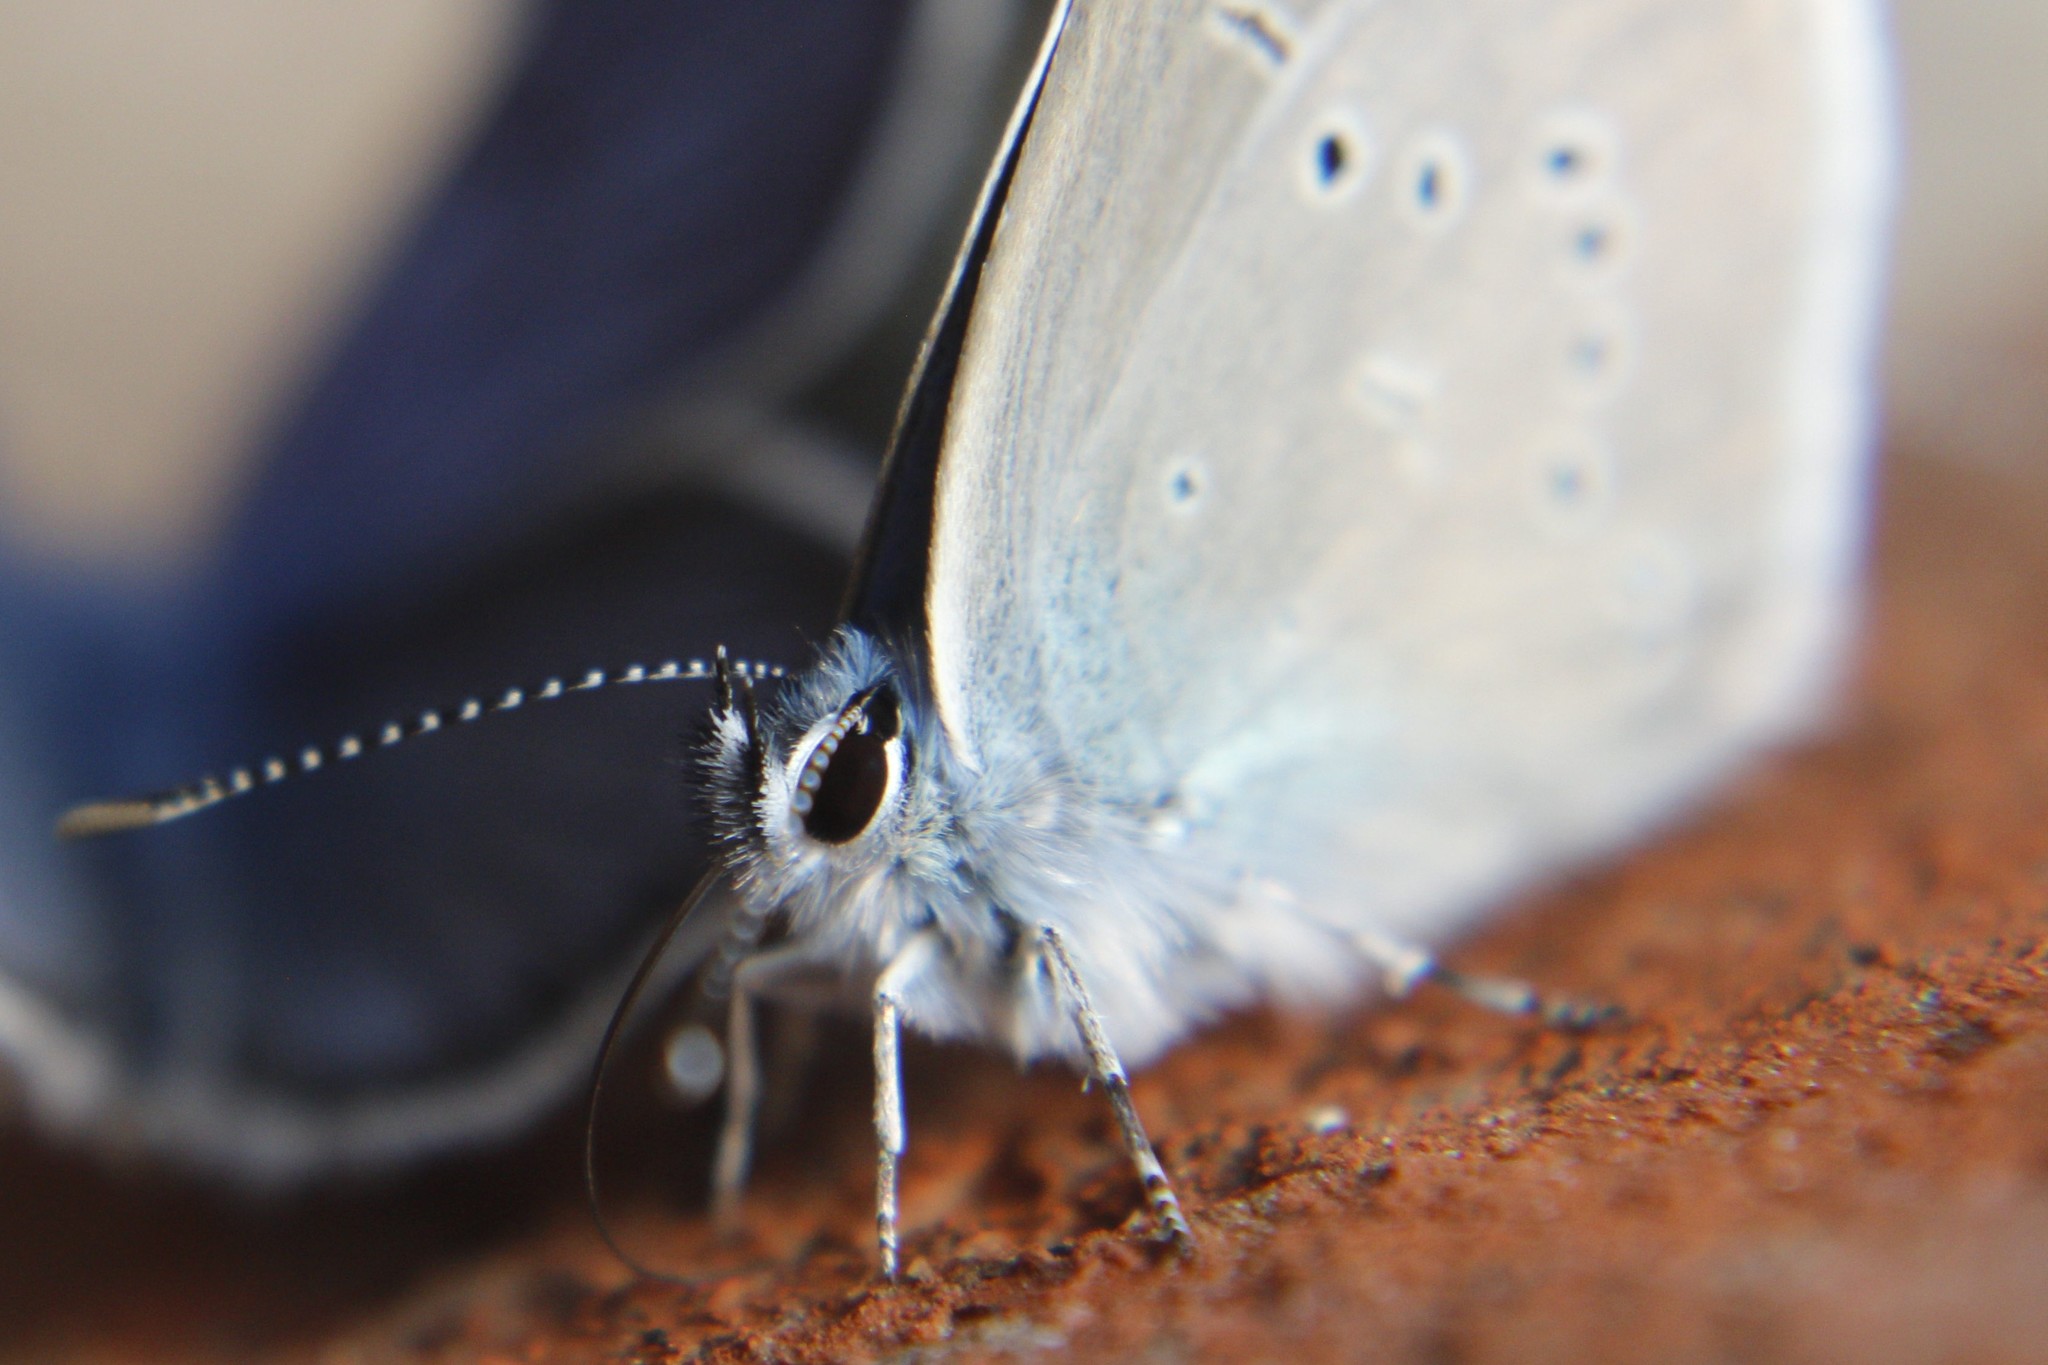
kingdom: Animalia
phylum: Arthropoda
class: Insecta
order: Lepidoptera
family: Lycaenidae
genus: Cyaniris
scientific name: Cyaniris semiargus
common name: Mazarine blue
